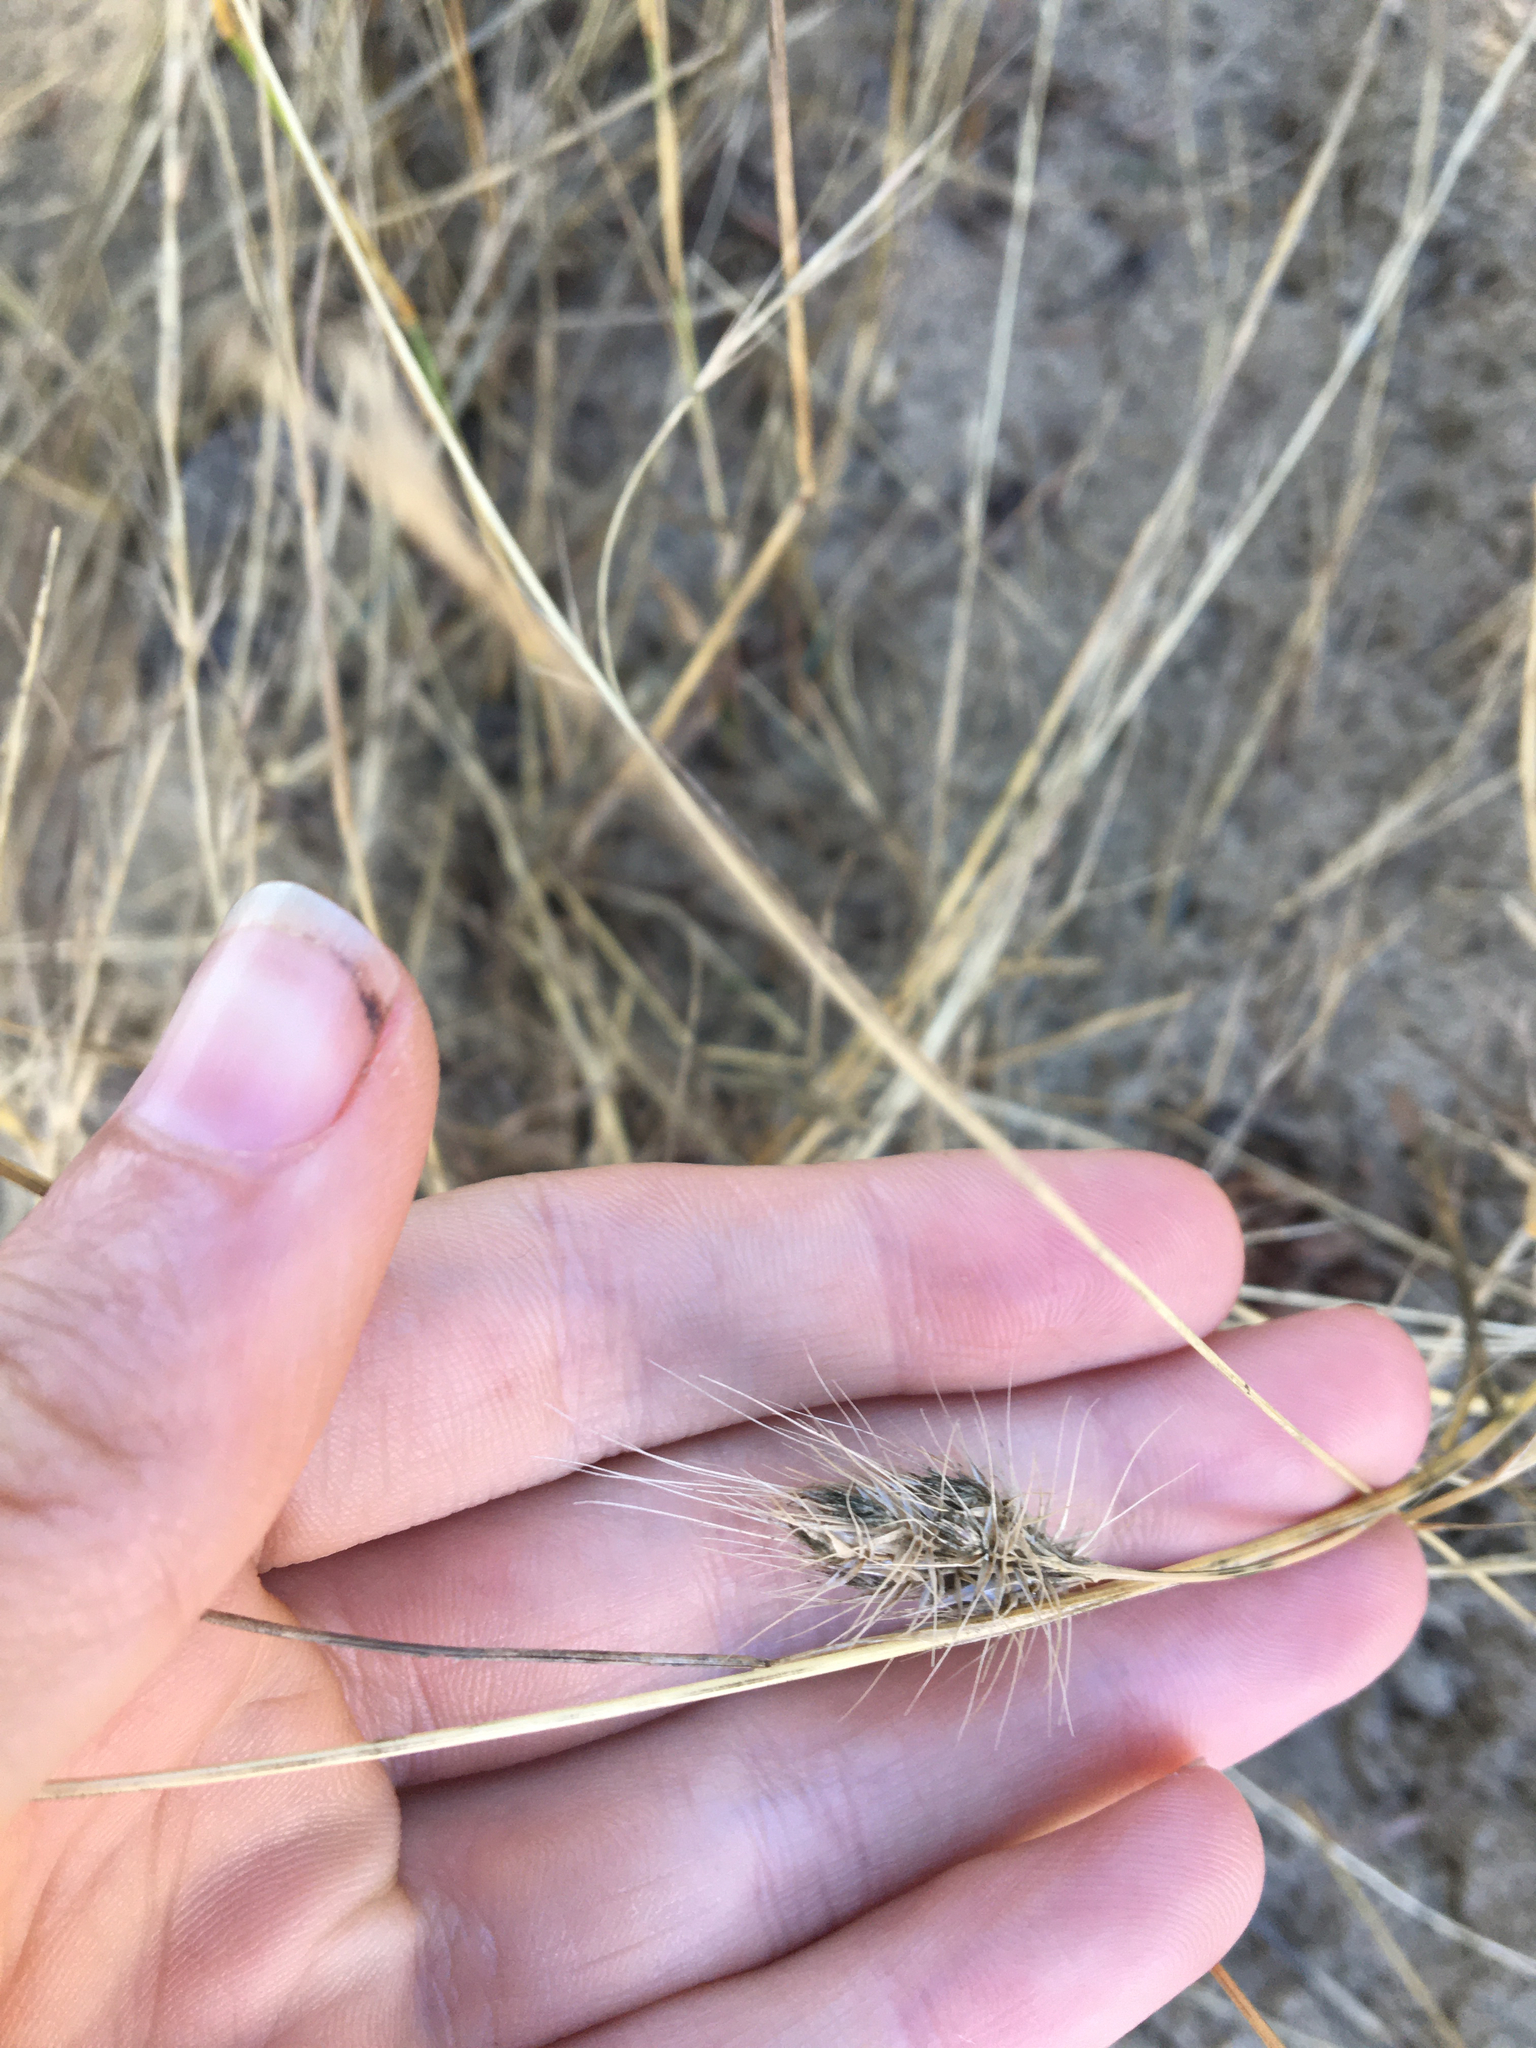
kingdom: Plantae
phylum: Tracheophyta
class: Liliopsida
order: Poales
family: Poaceae
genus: Cynosurus
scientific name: Cynosurus echinatus
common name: Rough dog's-tail
